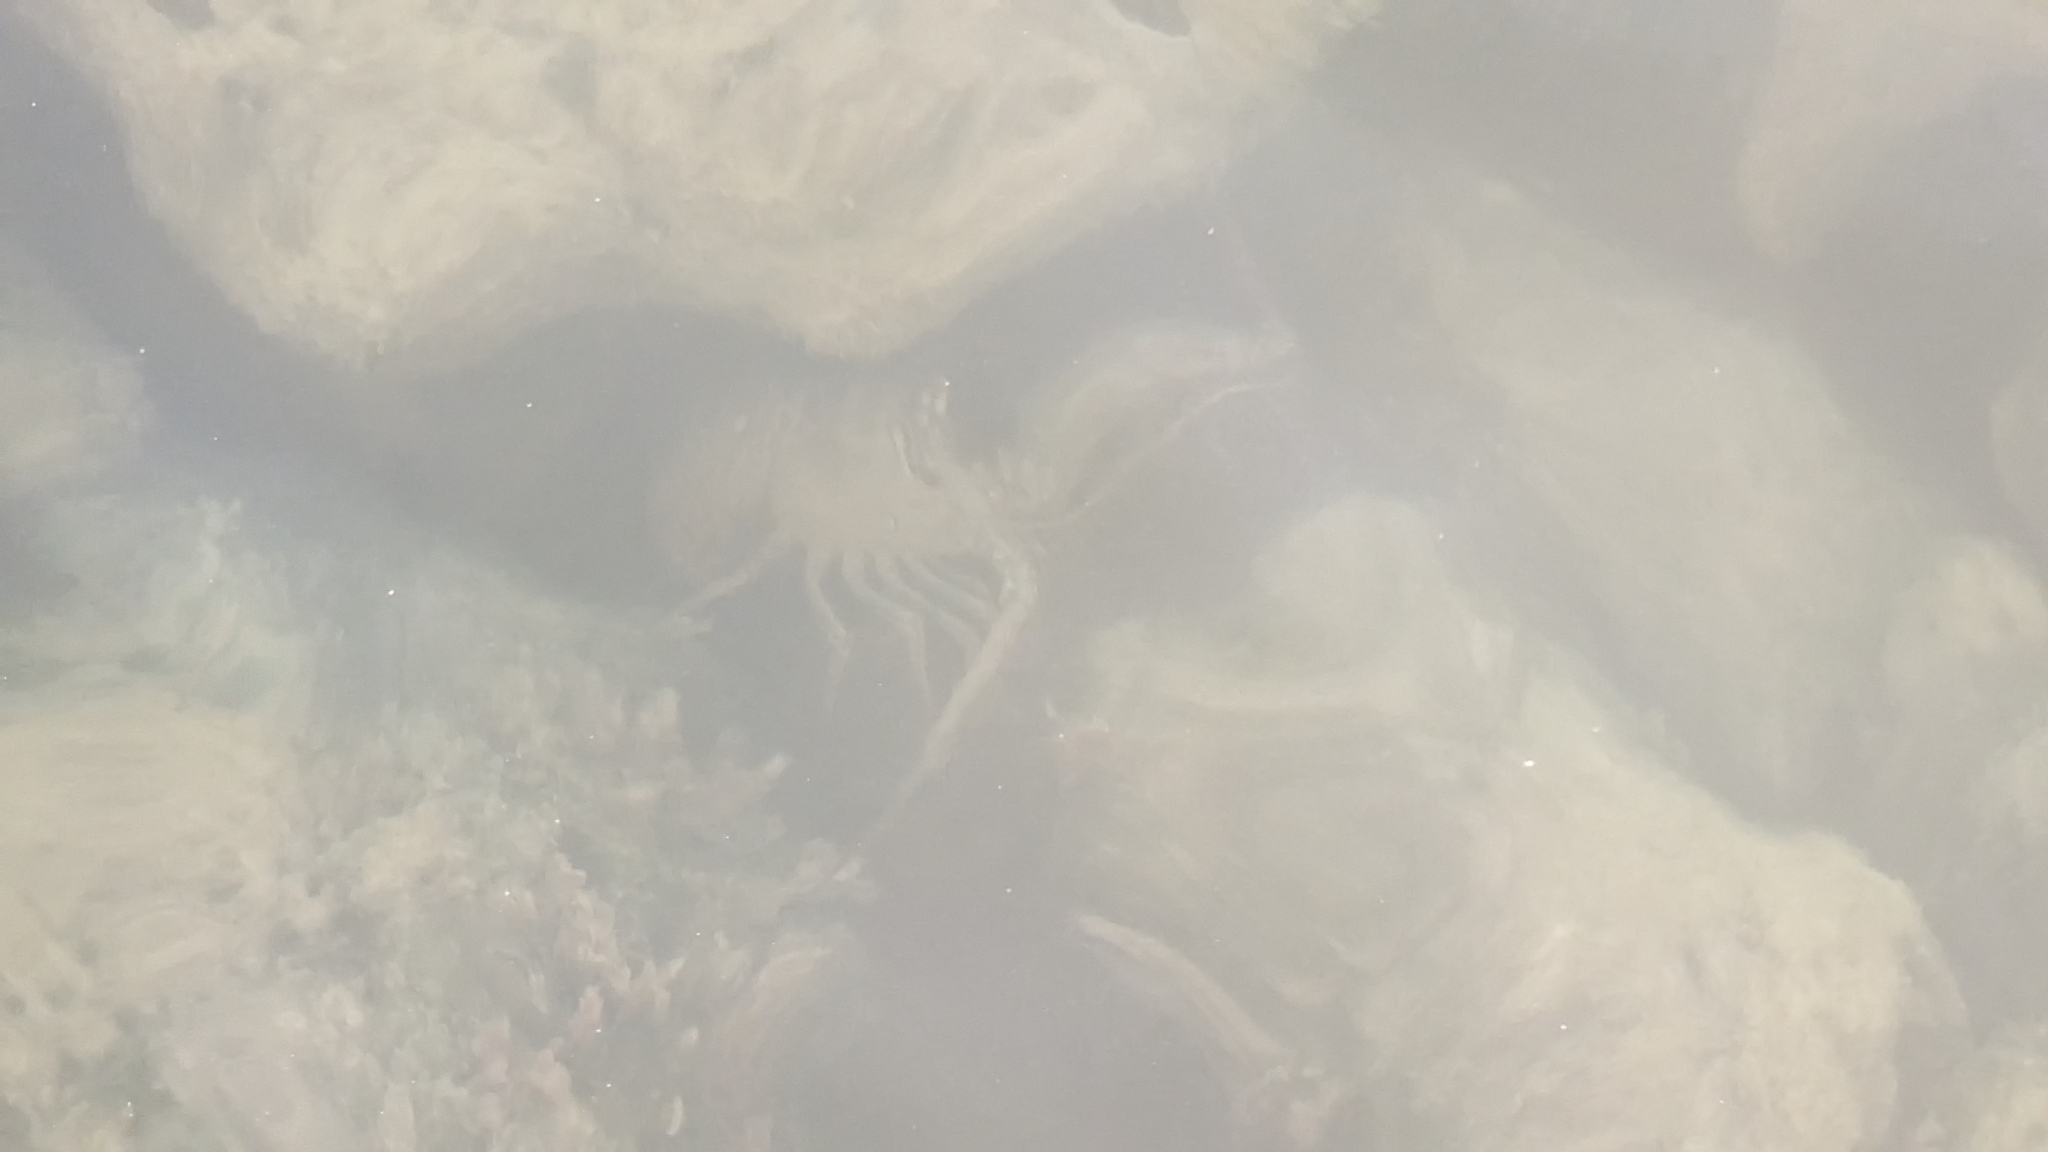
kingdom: Animalia
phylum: Arthropoda
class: Malacostraca
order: Decapoda
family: Palinuridae
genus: Panulirus
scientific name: Panulirus argus
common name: Caribbean spiny lobster
